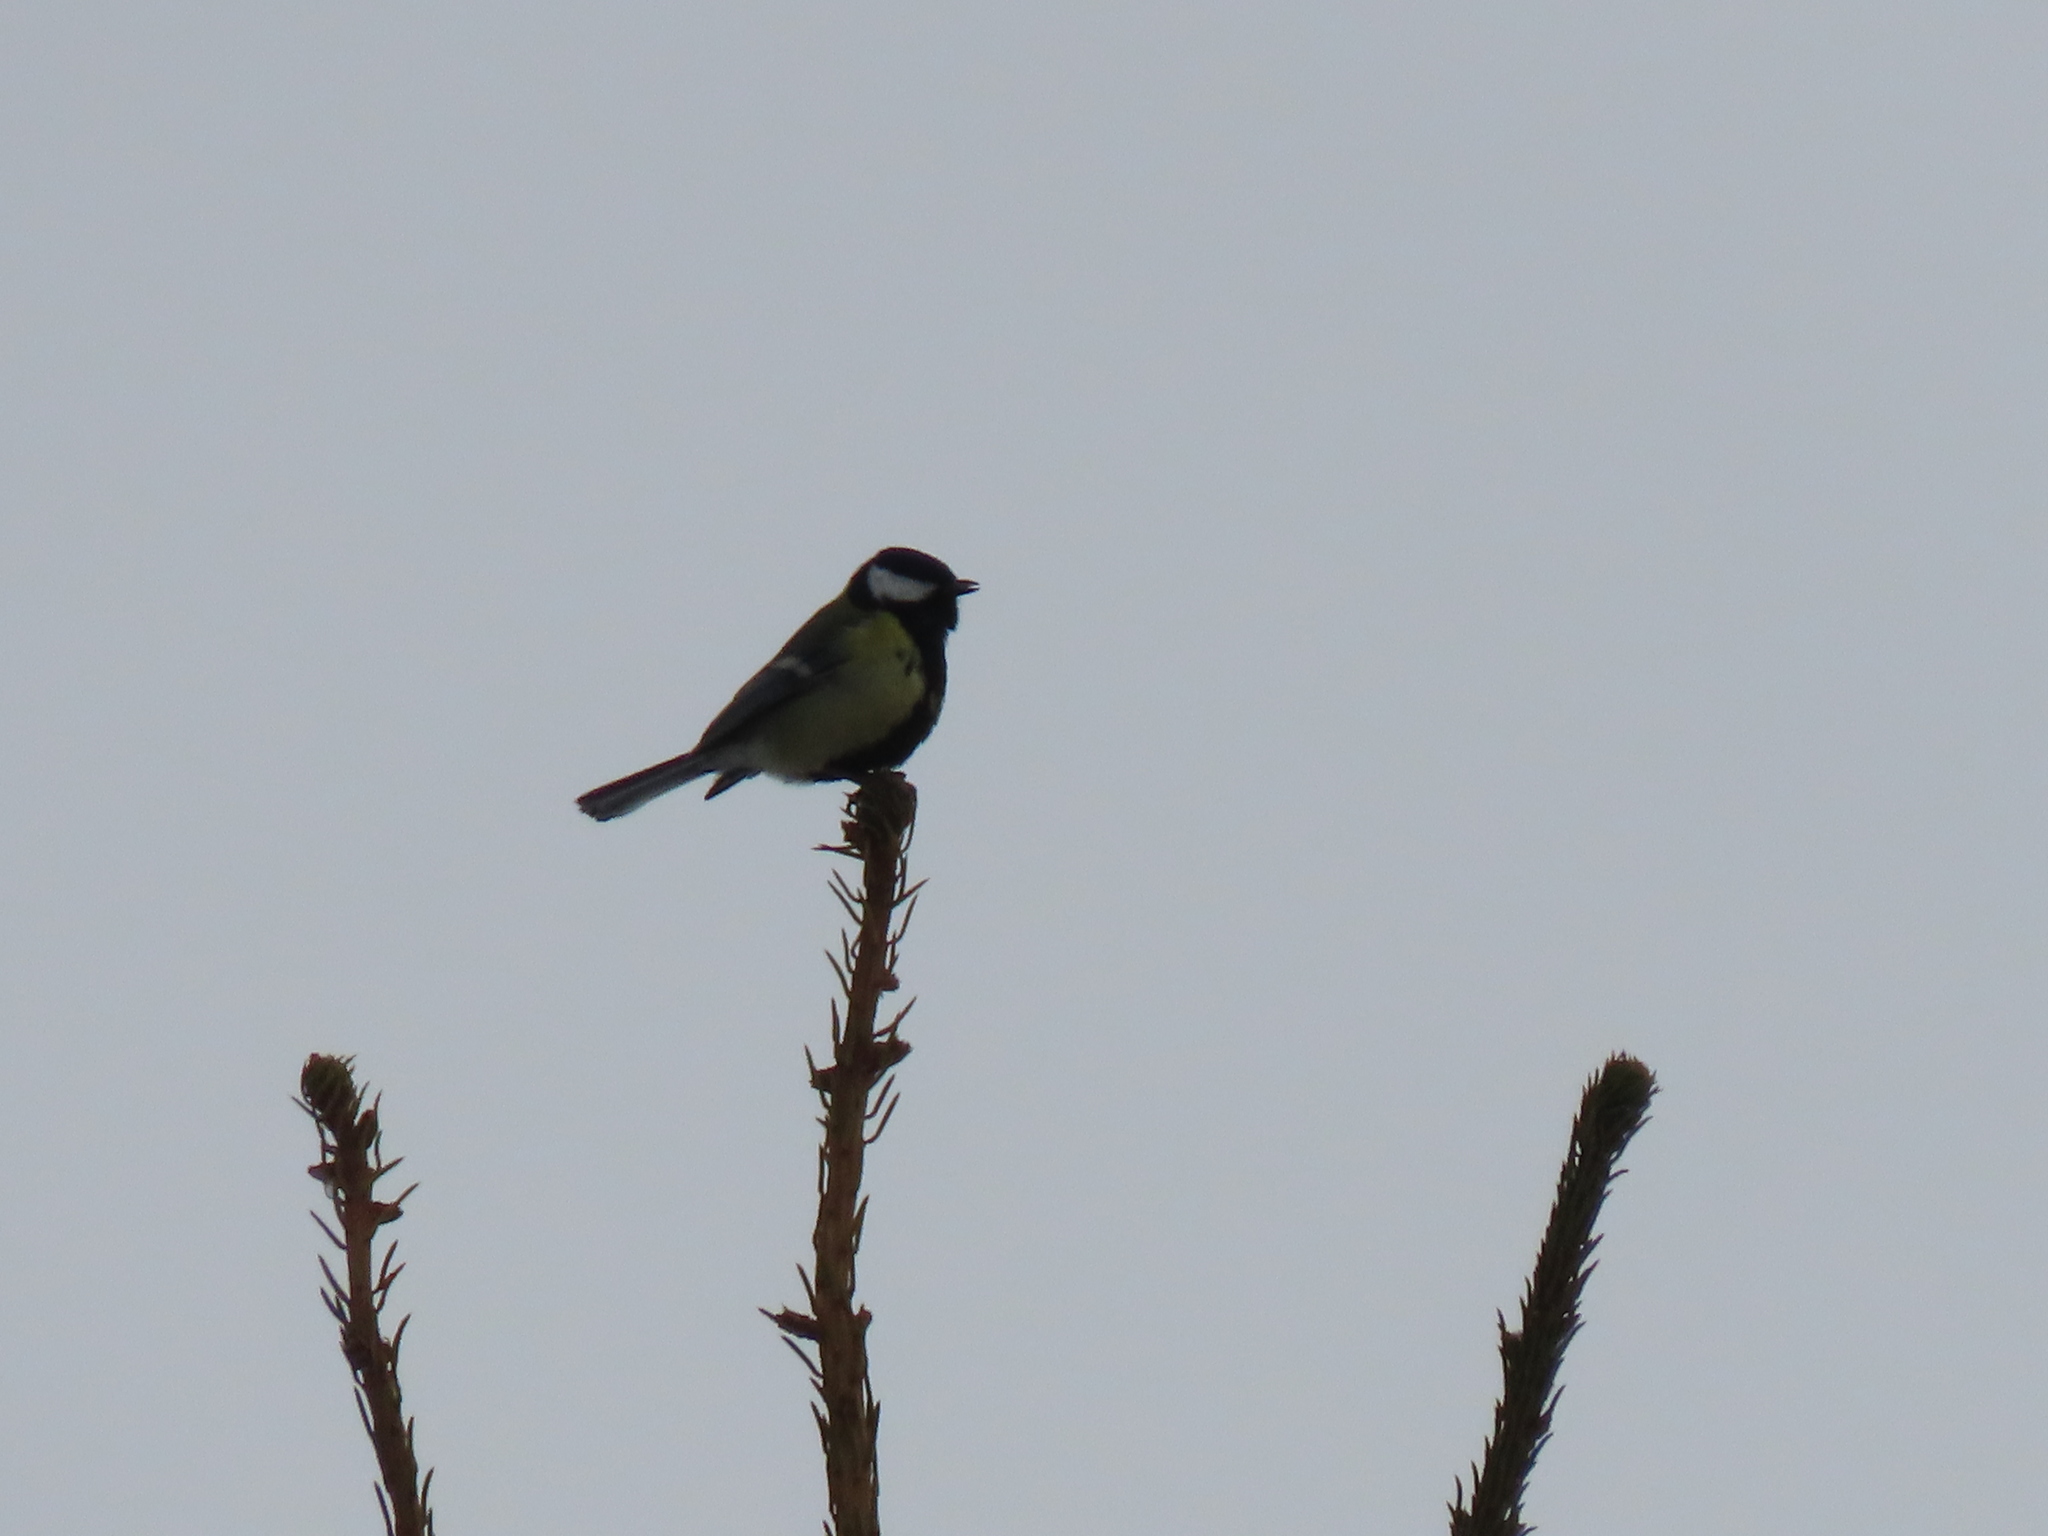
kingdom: Animalia
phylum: Chordata
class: Aves
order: Passeriformes
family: Paridae
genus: Parus
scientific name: Parus major
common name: Great tit
